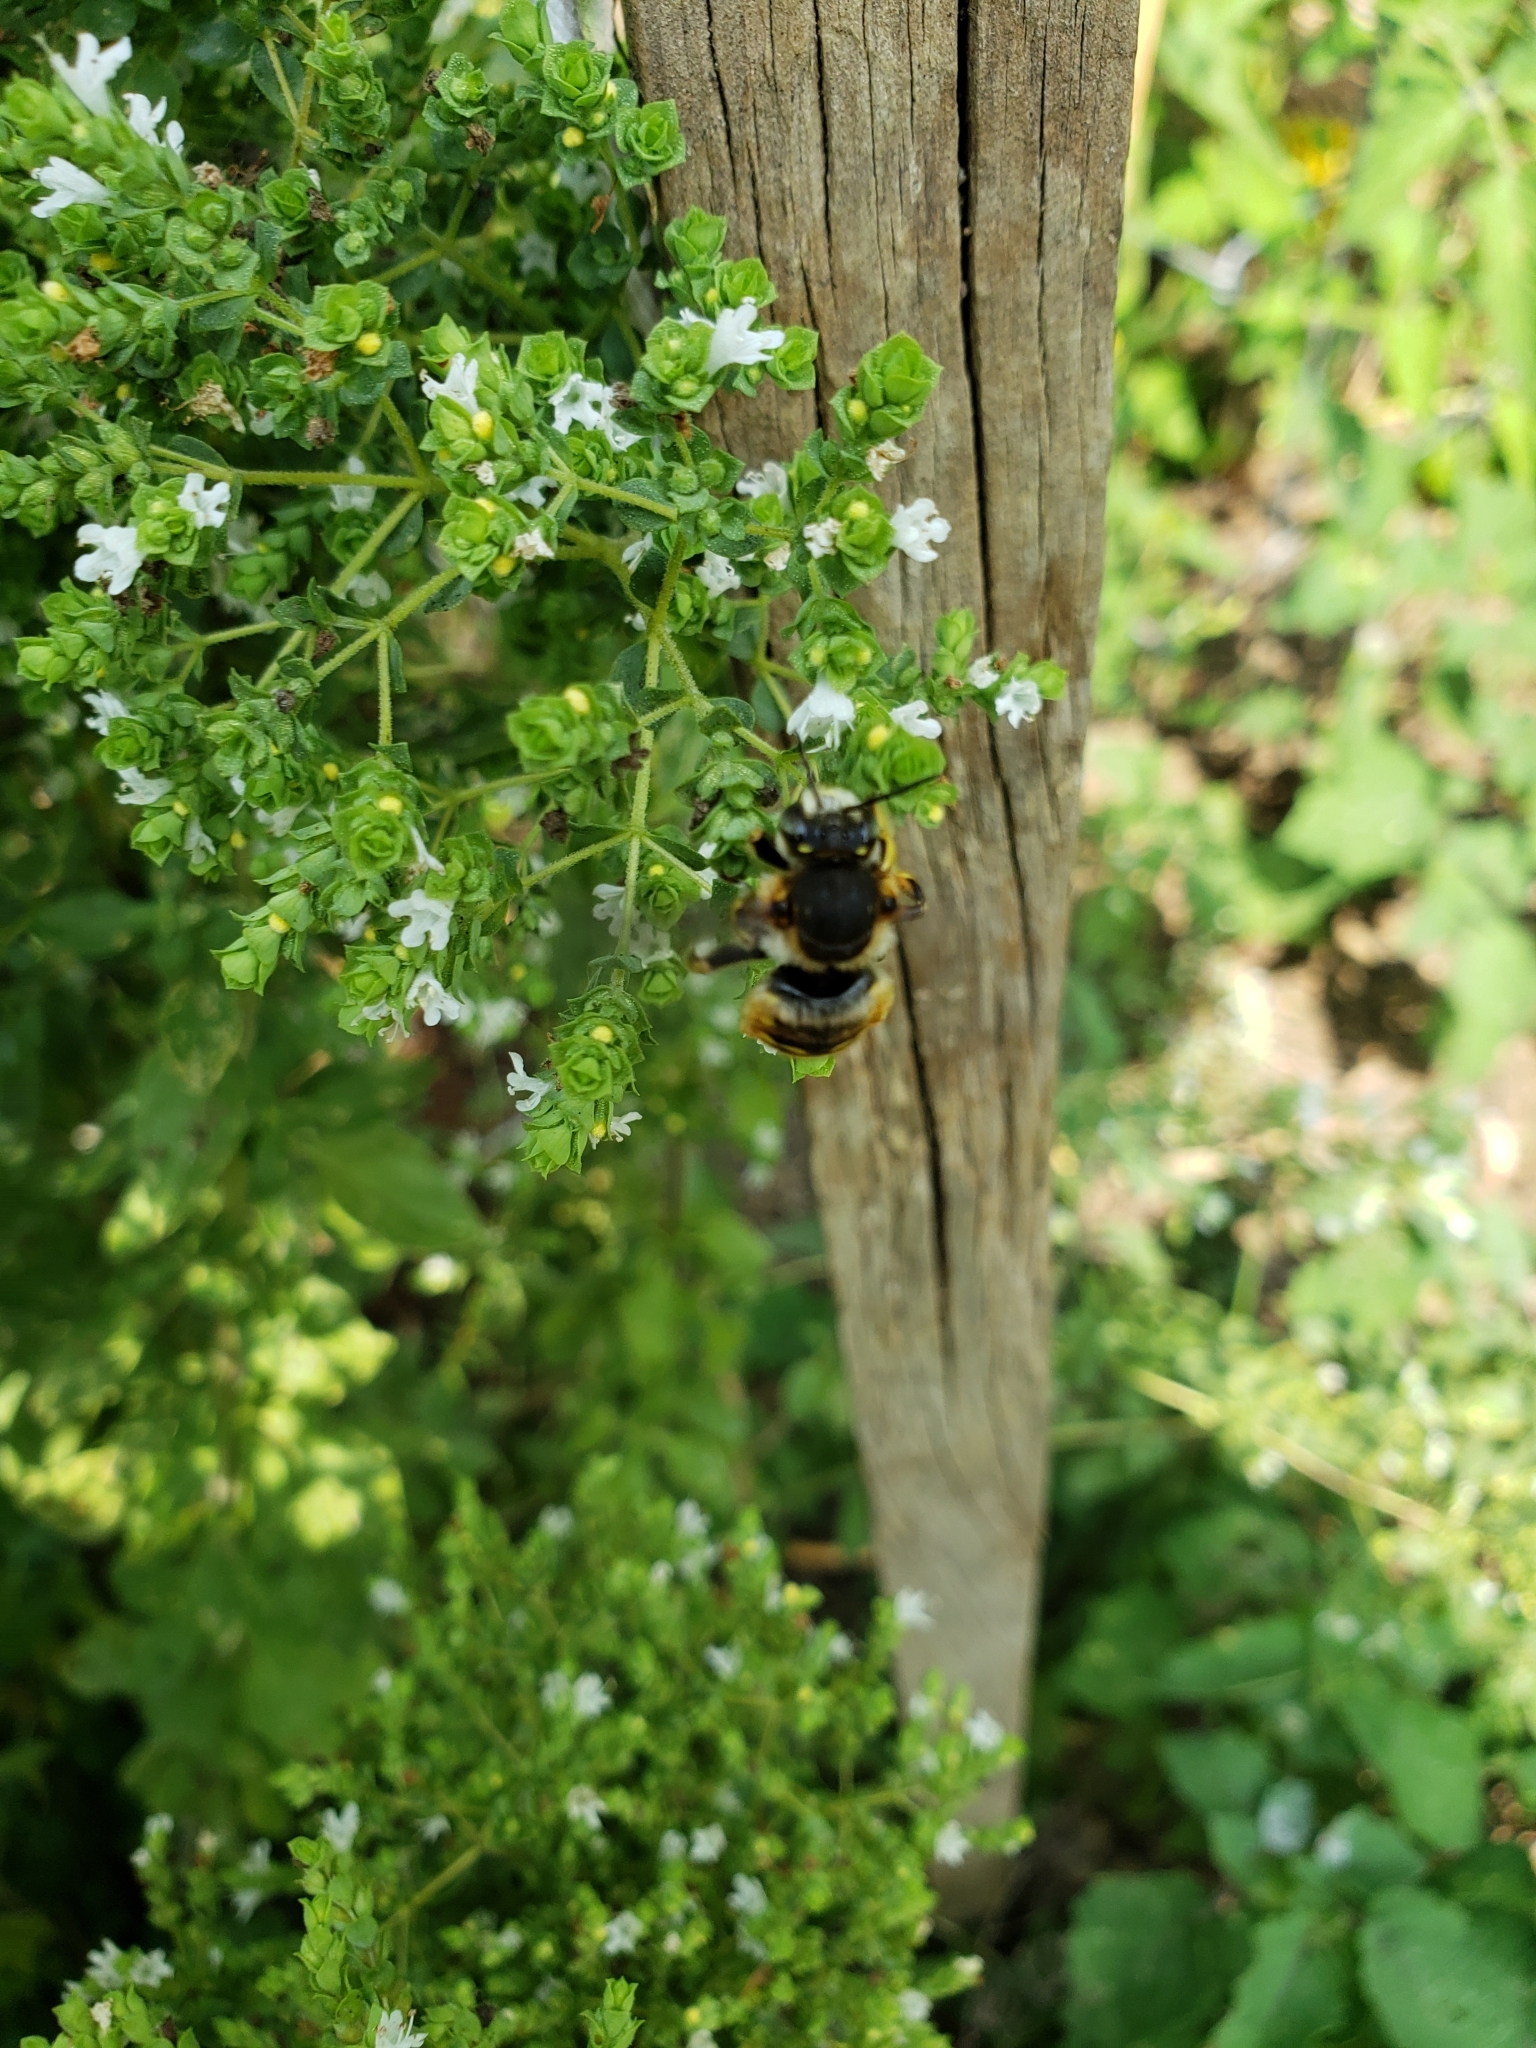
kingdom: Animalia
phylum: Arthropoda
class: Insecta
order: Hymenoptera
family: Megachilidae
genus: Anthidium
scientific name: Anthidium manicatum
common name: Wool carder bee
